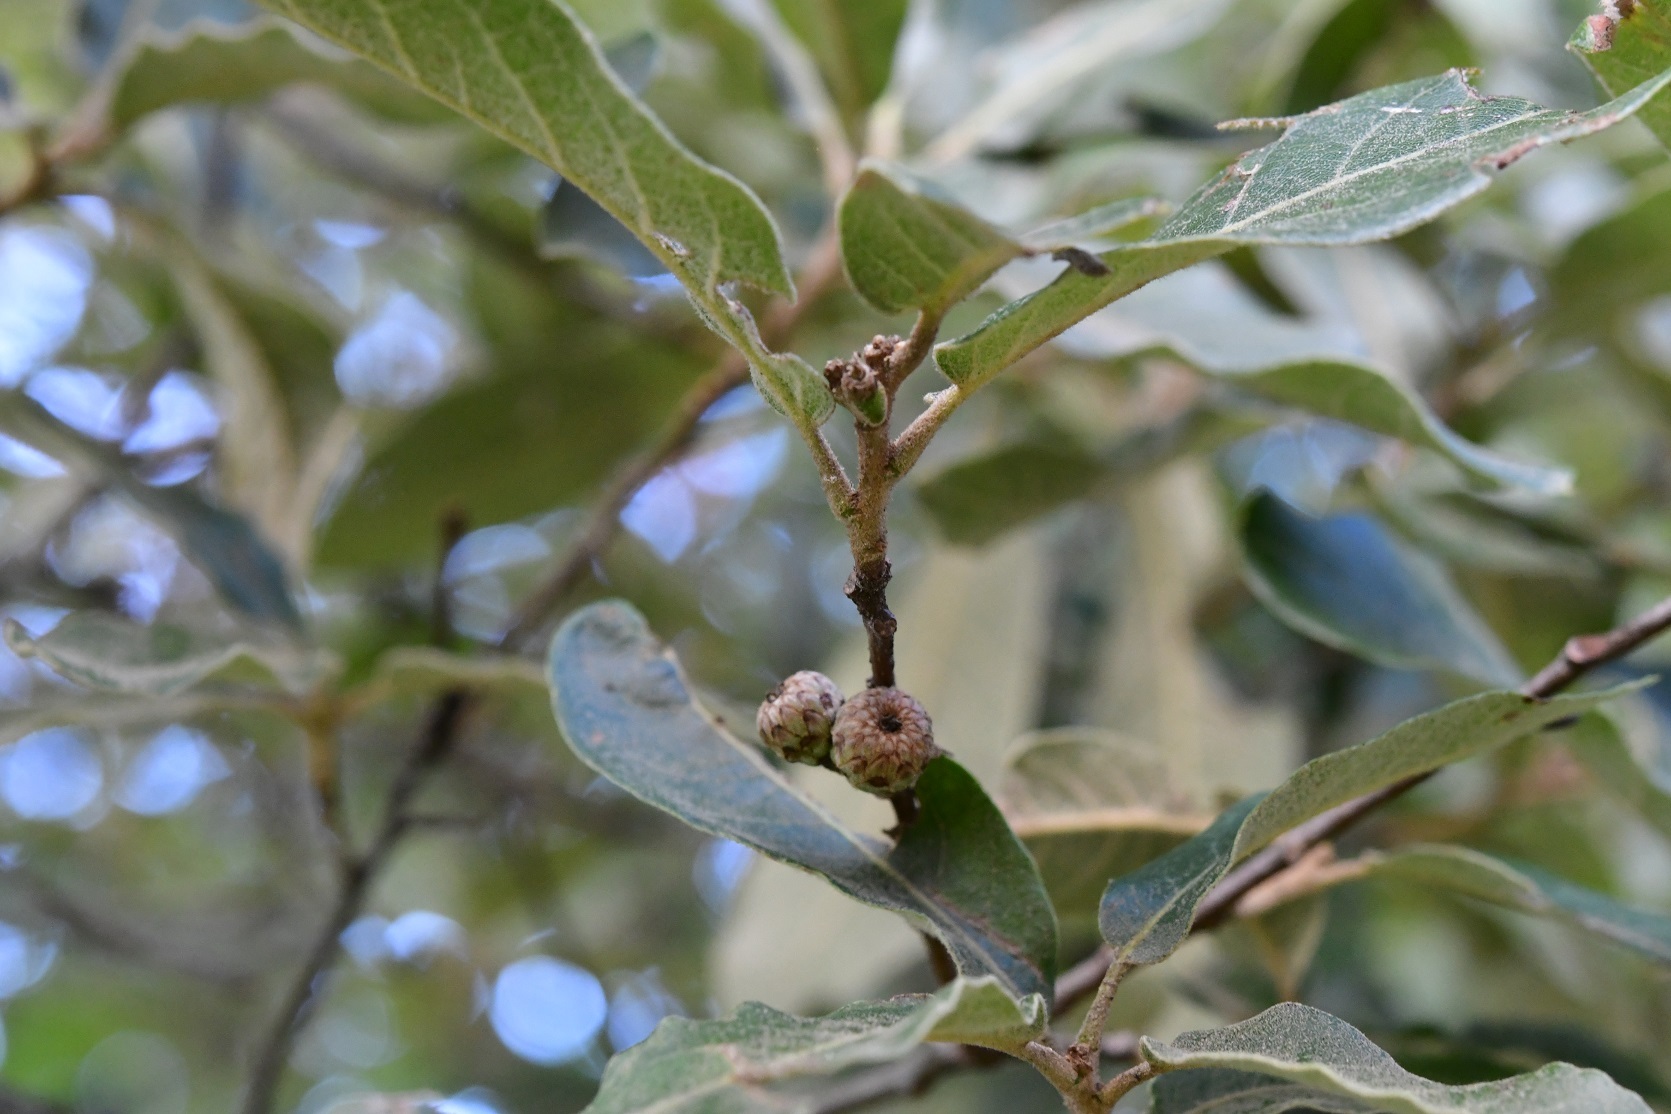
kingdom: Plantae
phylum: Tracheophyta
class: Magnoliopsida
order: Fagales
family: Fagaceae
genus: Quercus
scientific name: Quercus crispipilis
